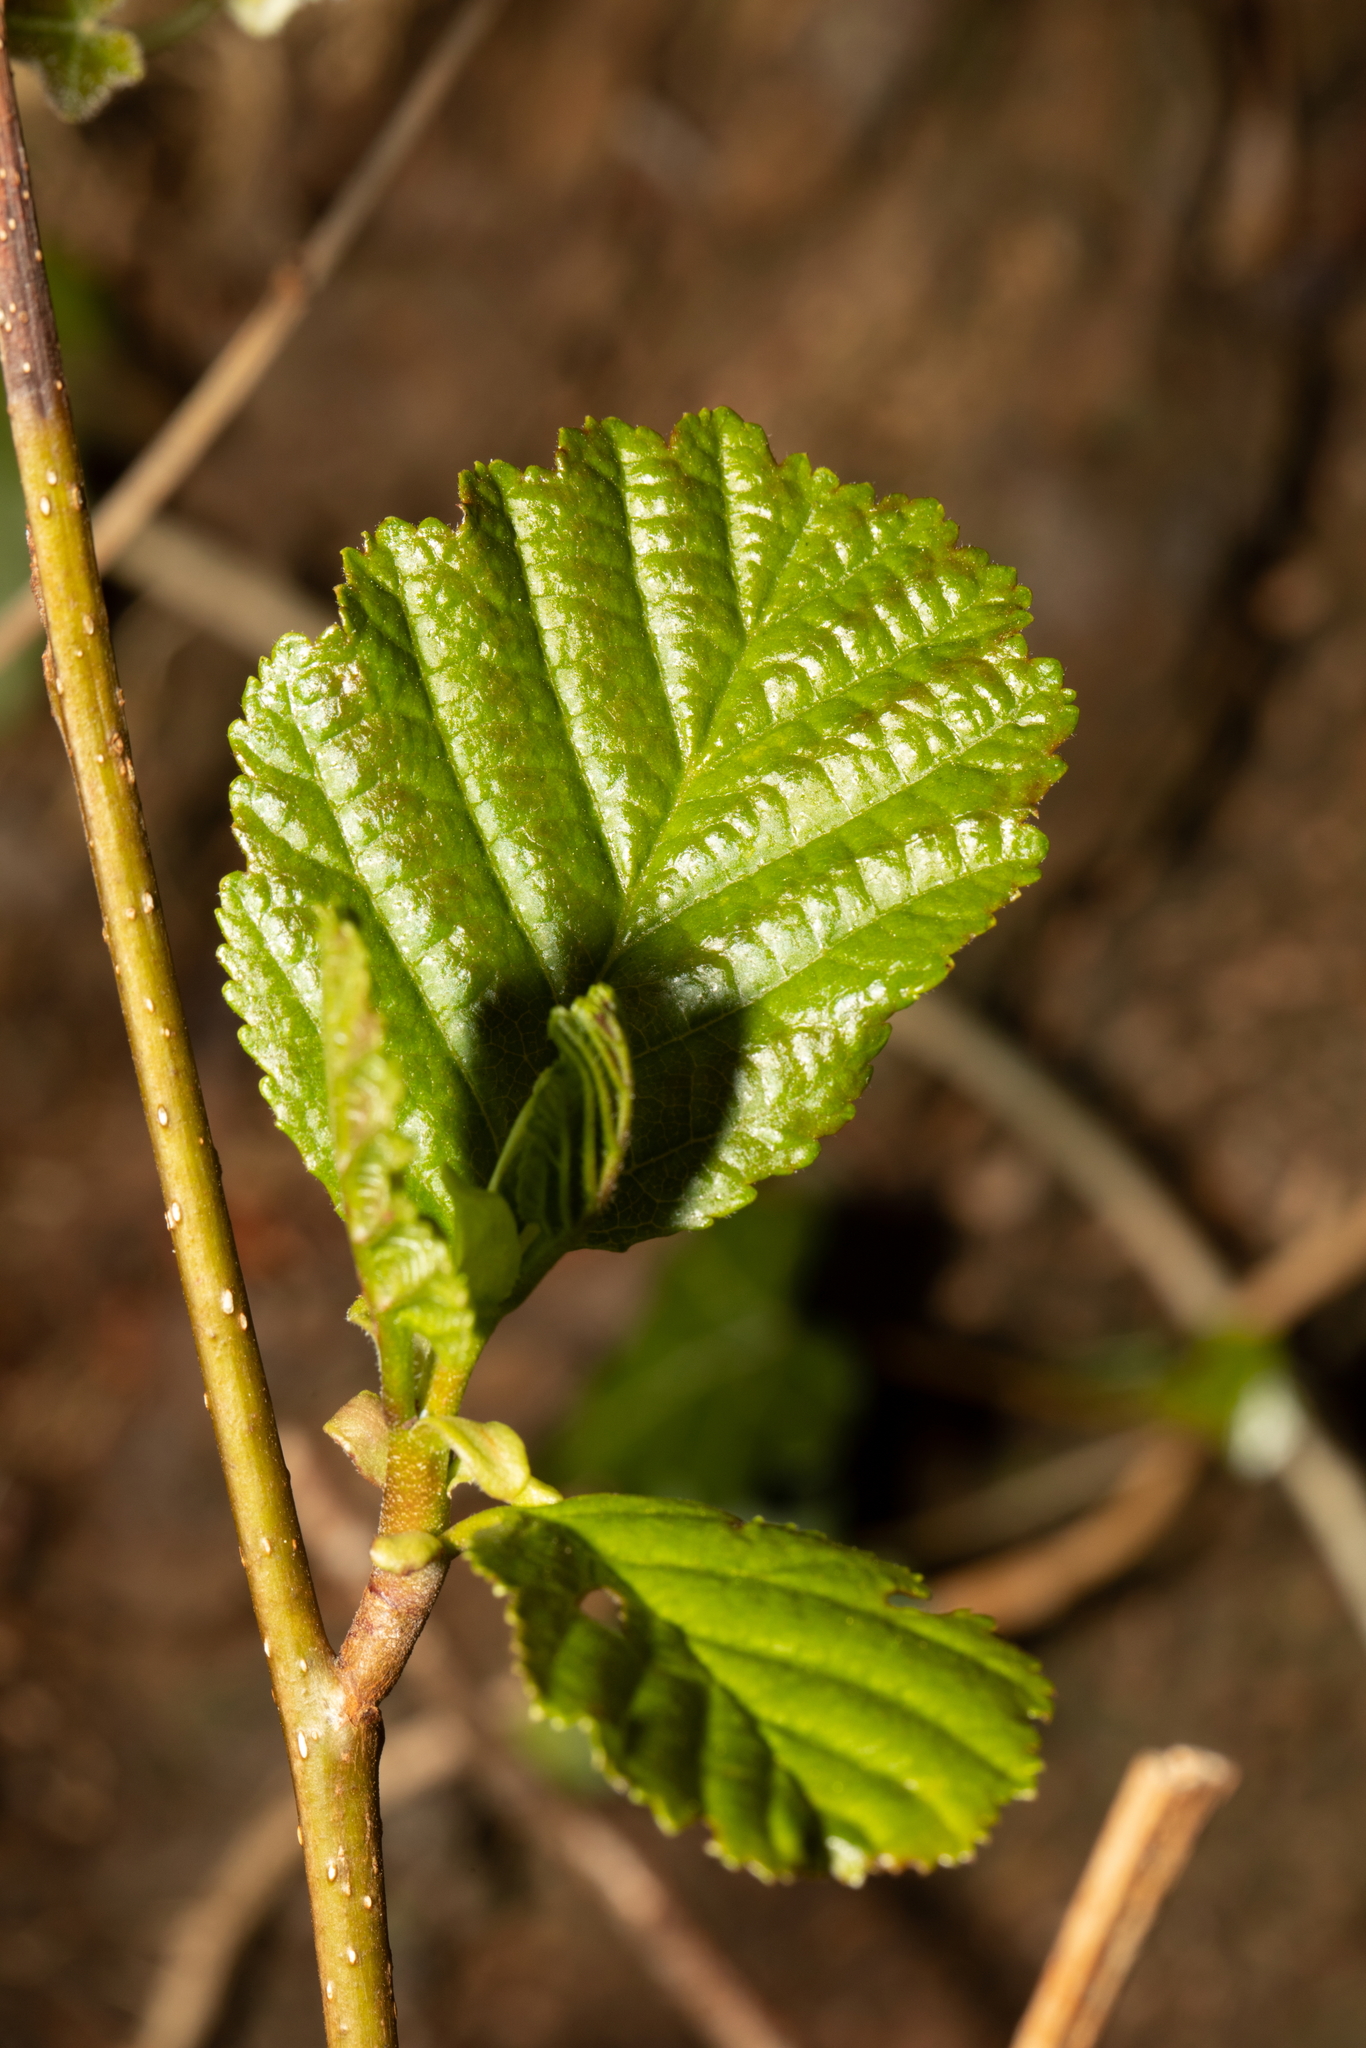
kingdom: Plantae
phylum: Tracheophyta
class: Magnoliopsida
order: Fagales
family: Betulaceae
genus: Alnus
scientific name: Alnus glutinosa
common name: Black alder
